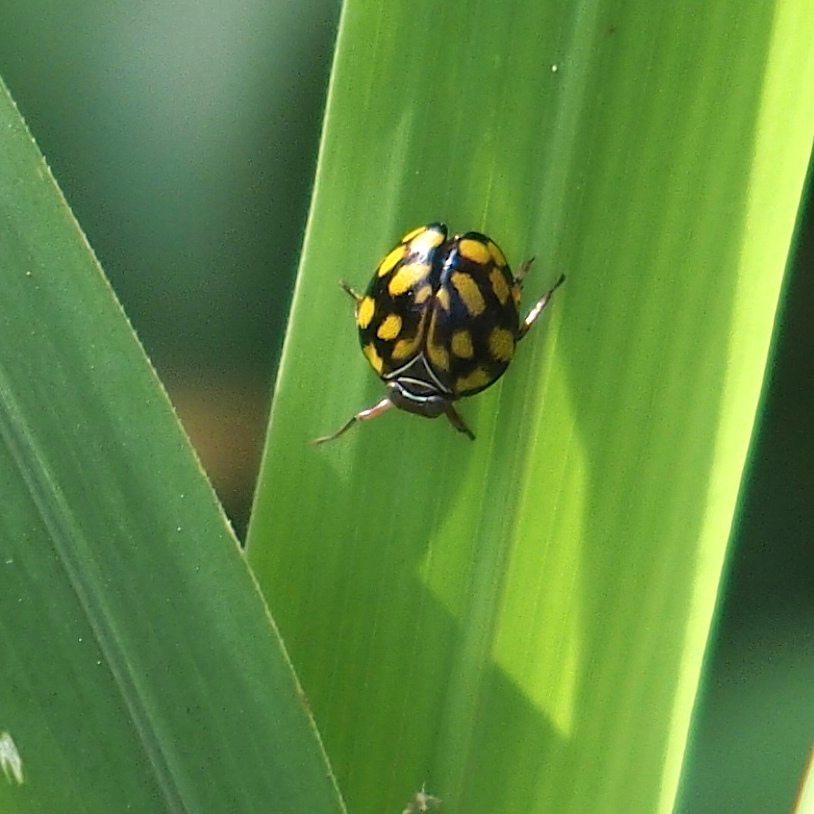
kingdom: Animalia
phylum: Arthropoda
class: Insecta
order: Hemiptera
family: Issidae
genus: Gnezdilovius
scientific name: Gnezdilovius tessellatus
